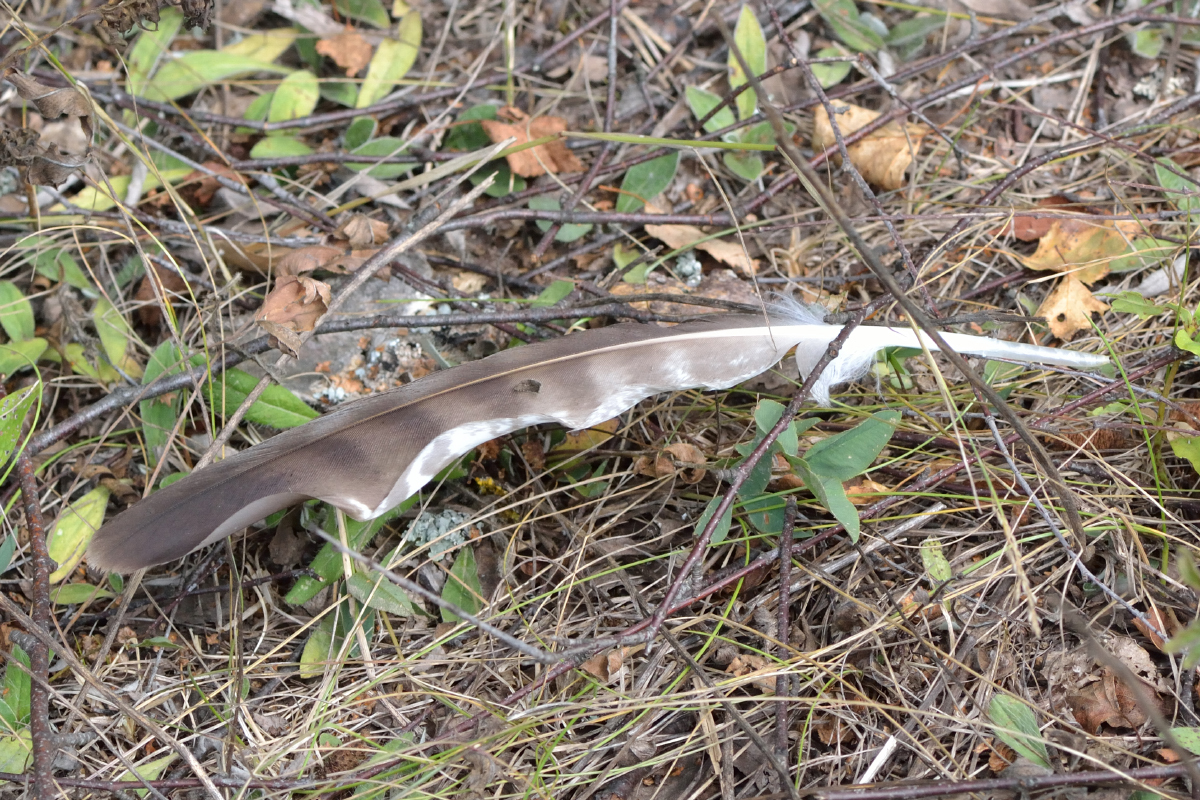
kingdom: Animalia
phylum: Chordata
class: Aves
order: Accipitriformes
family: Accipitridae
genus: Buteo
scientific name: Buteo buteo
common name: Common buzzard
